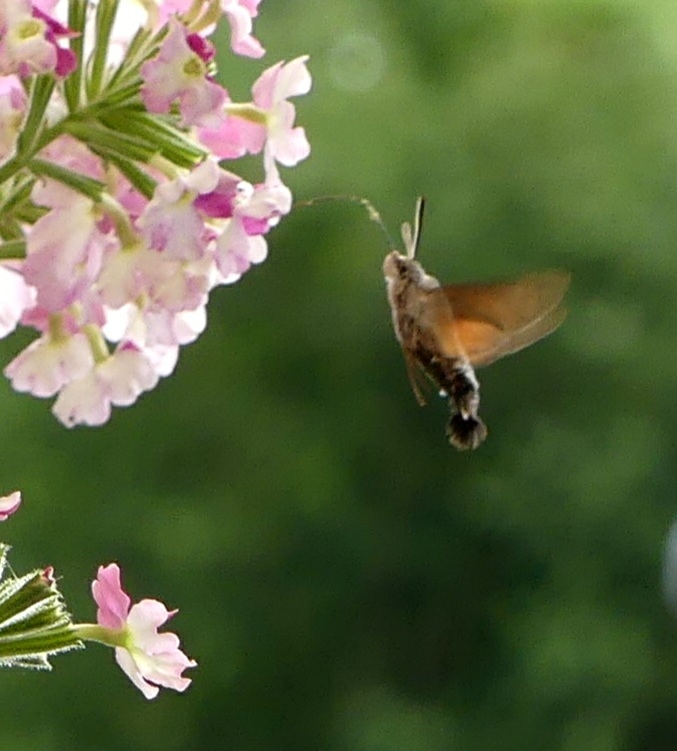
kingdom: Animalia
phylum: Arthropoda
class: Insecta
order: Lepidoptera
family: Sphingidae
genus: Macroglossum
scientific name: Macroglossum stellatarum
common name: Humming-bird hawk-moth
